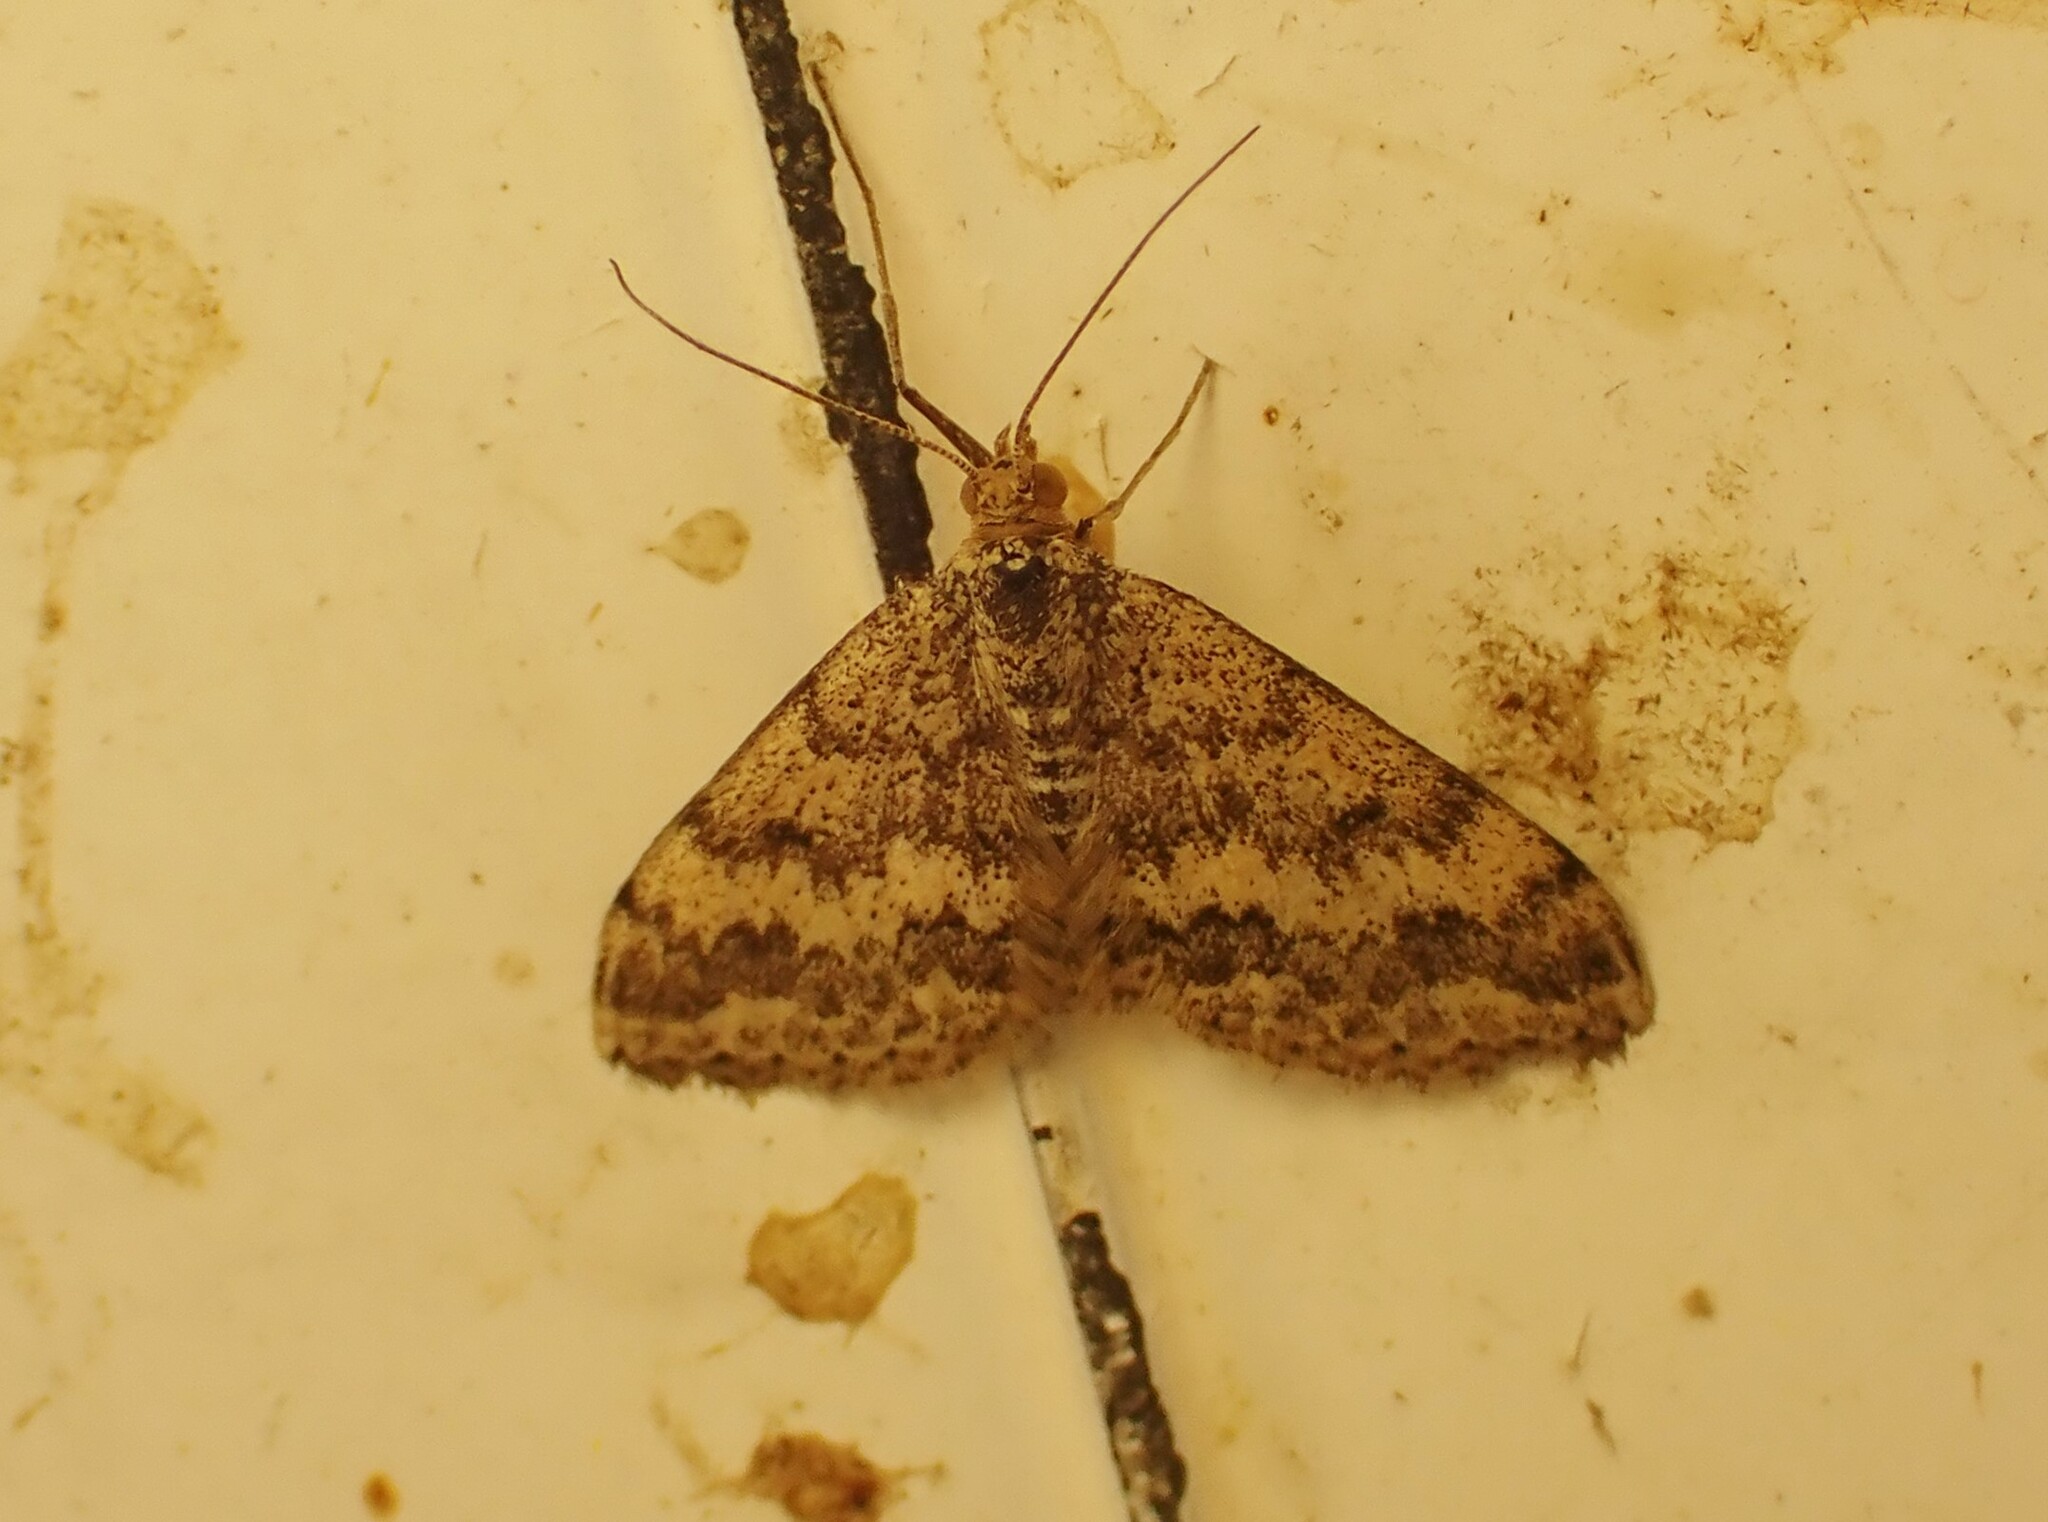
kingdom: Animalia
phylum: Arthropoda
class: Insecta
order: Lepidoptera
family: Geometridae
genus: Scopula
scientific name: Scopula rubraria
